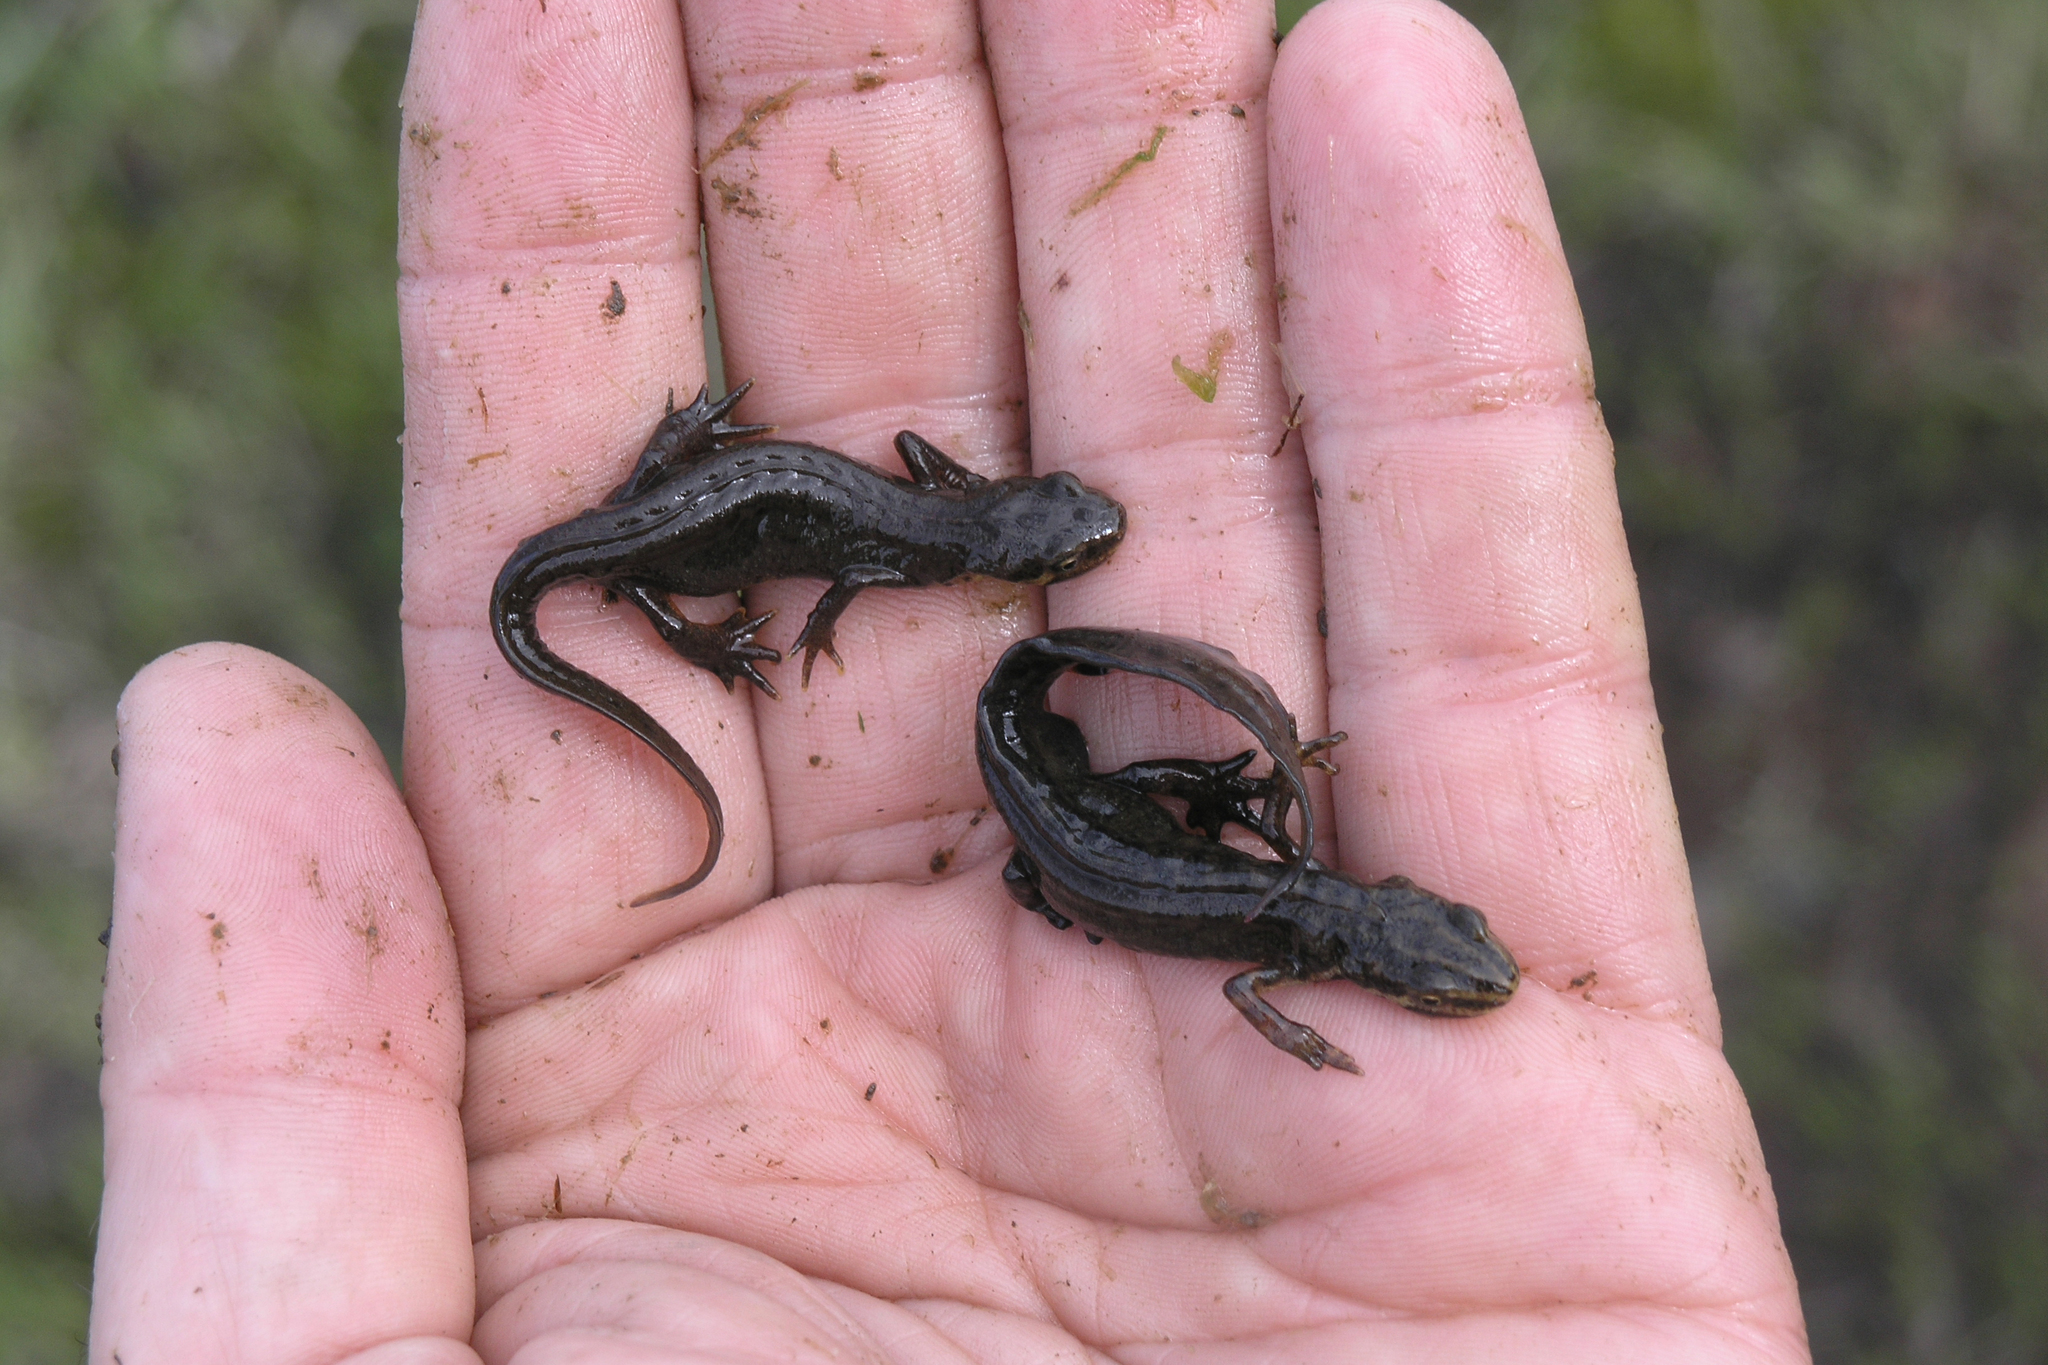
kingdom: Animalia
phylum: Chordata
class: Amphibia
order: Caudata
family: Salamandridae
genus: Lissotriton
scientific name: Lissotriton lantzi
